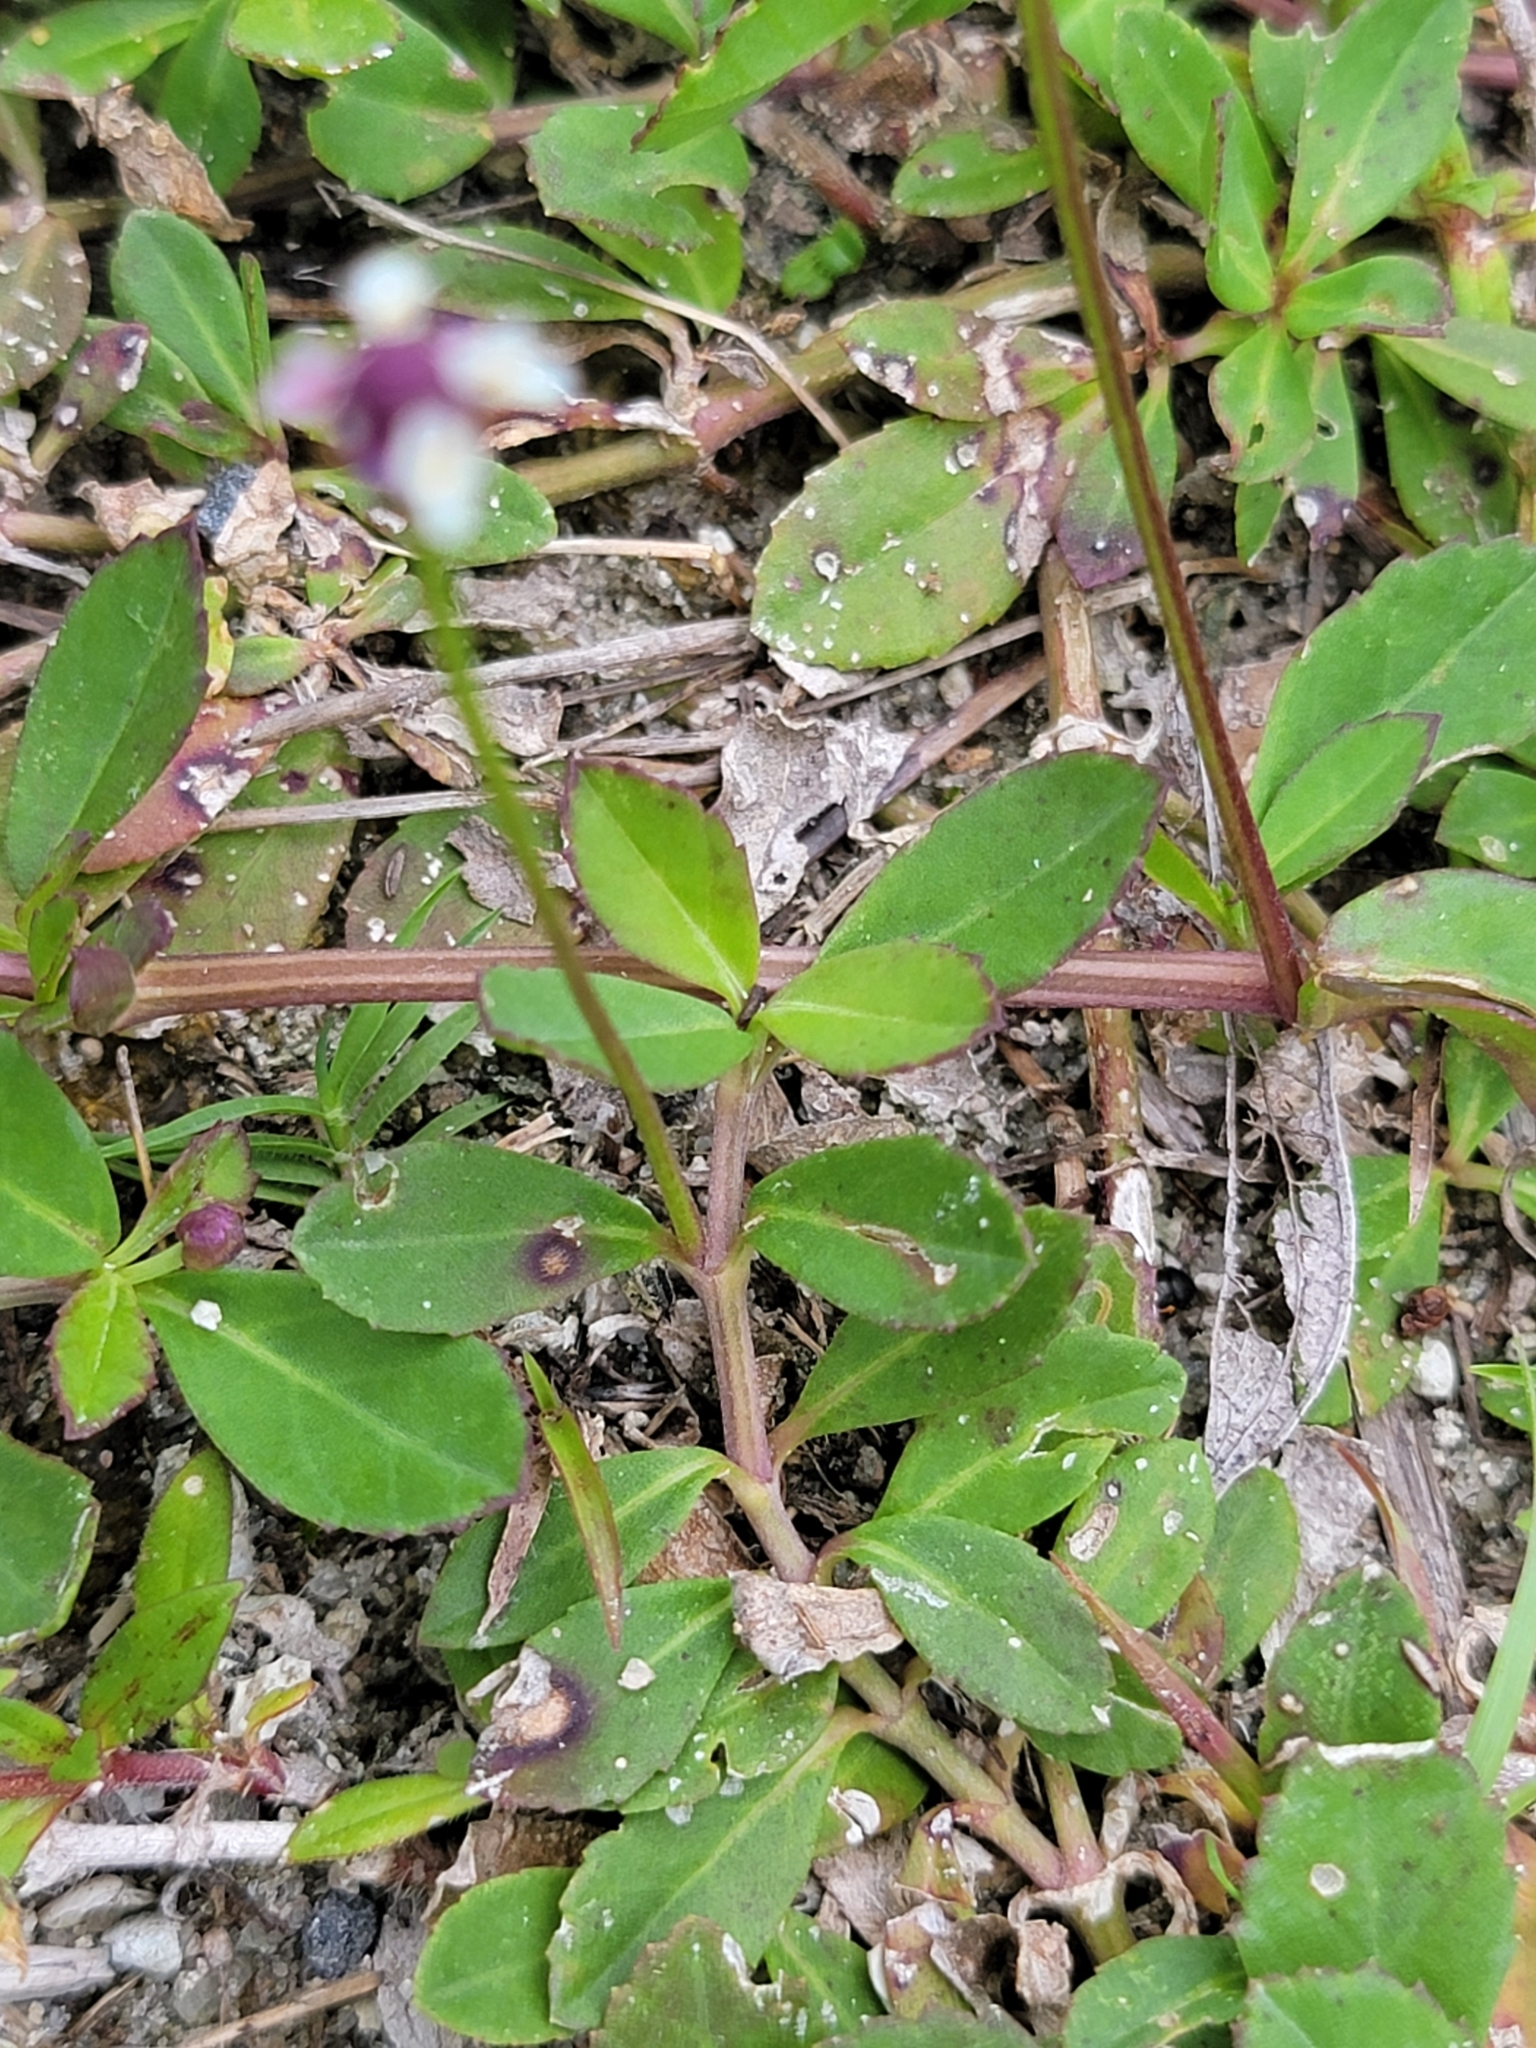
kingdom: Plantae
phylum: Tracheophyta
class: Magnoliopsida
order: Lamiales
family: Verbenaceae
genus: Phyla
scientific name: Phyla nodiflora
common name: Frogfruit
